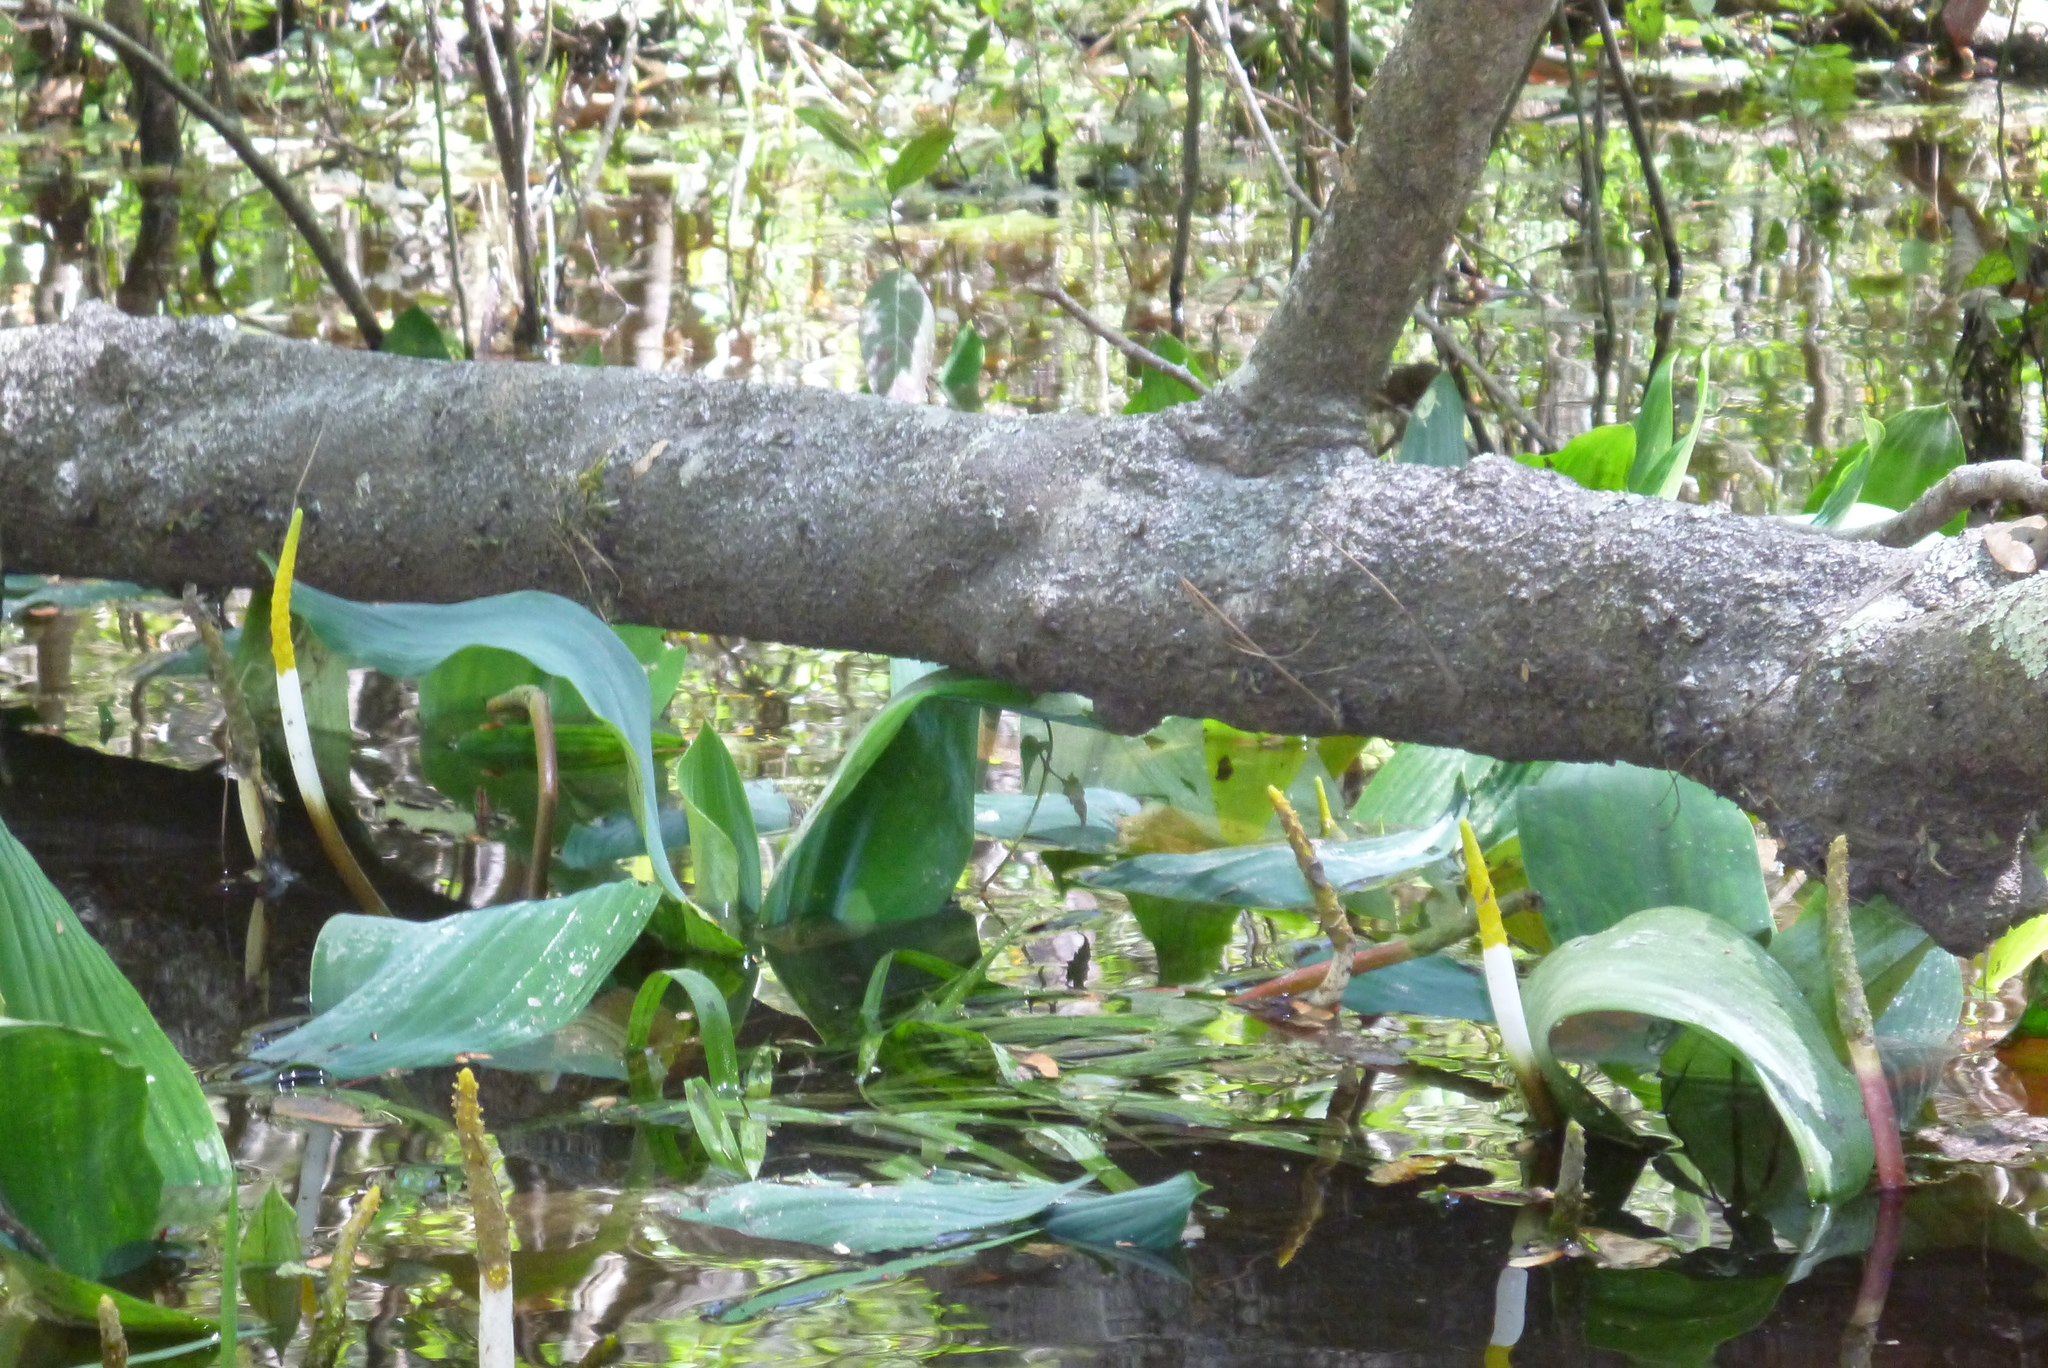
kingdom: Plantae
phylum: Tracheophyta
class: Liliopsida
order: Alismatales
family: Araceae
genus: Orontium
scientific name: Orontium aquaticum
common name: Golden-club
